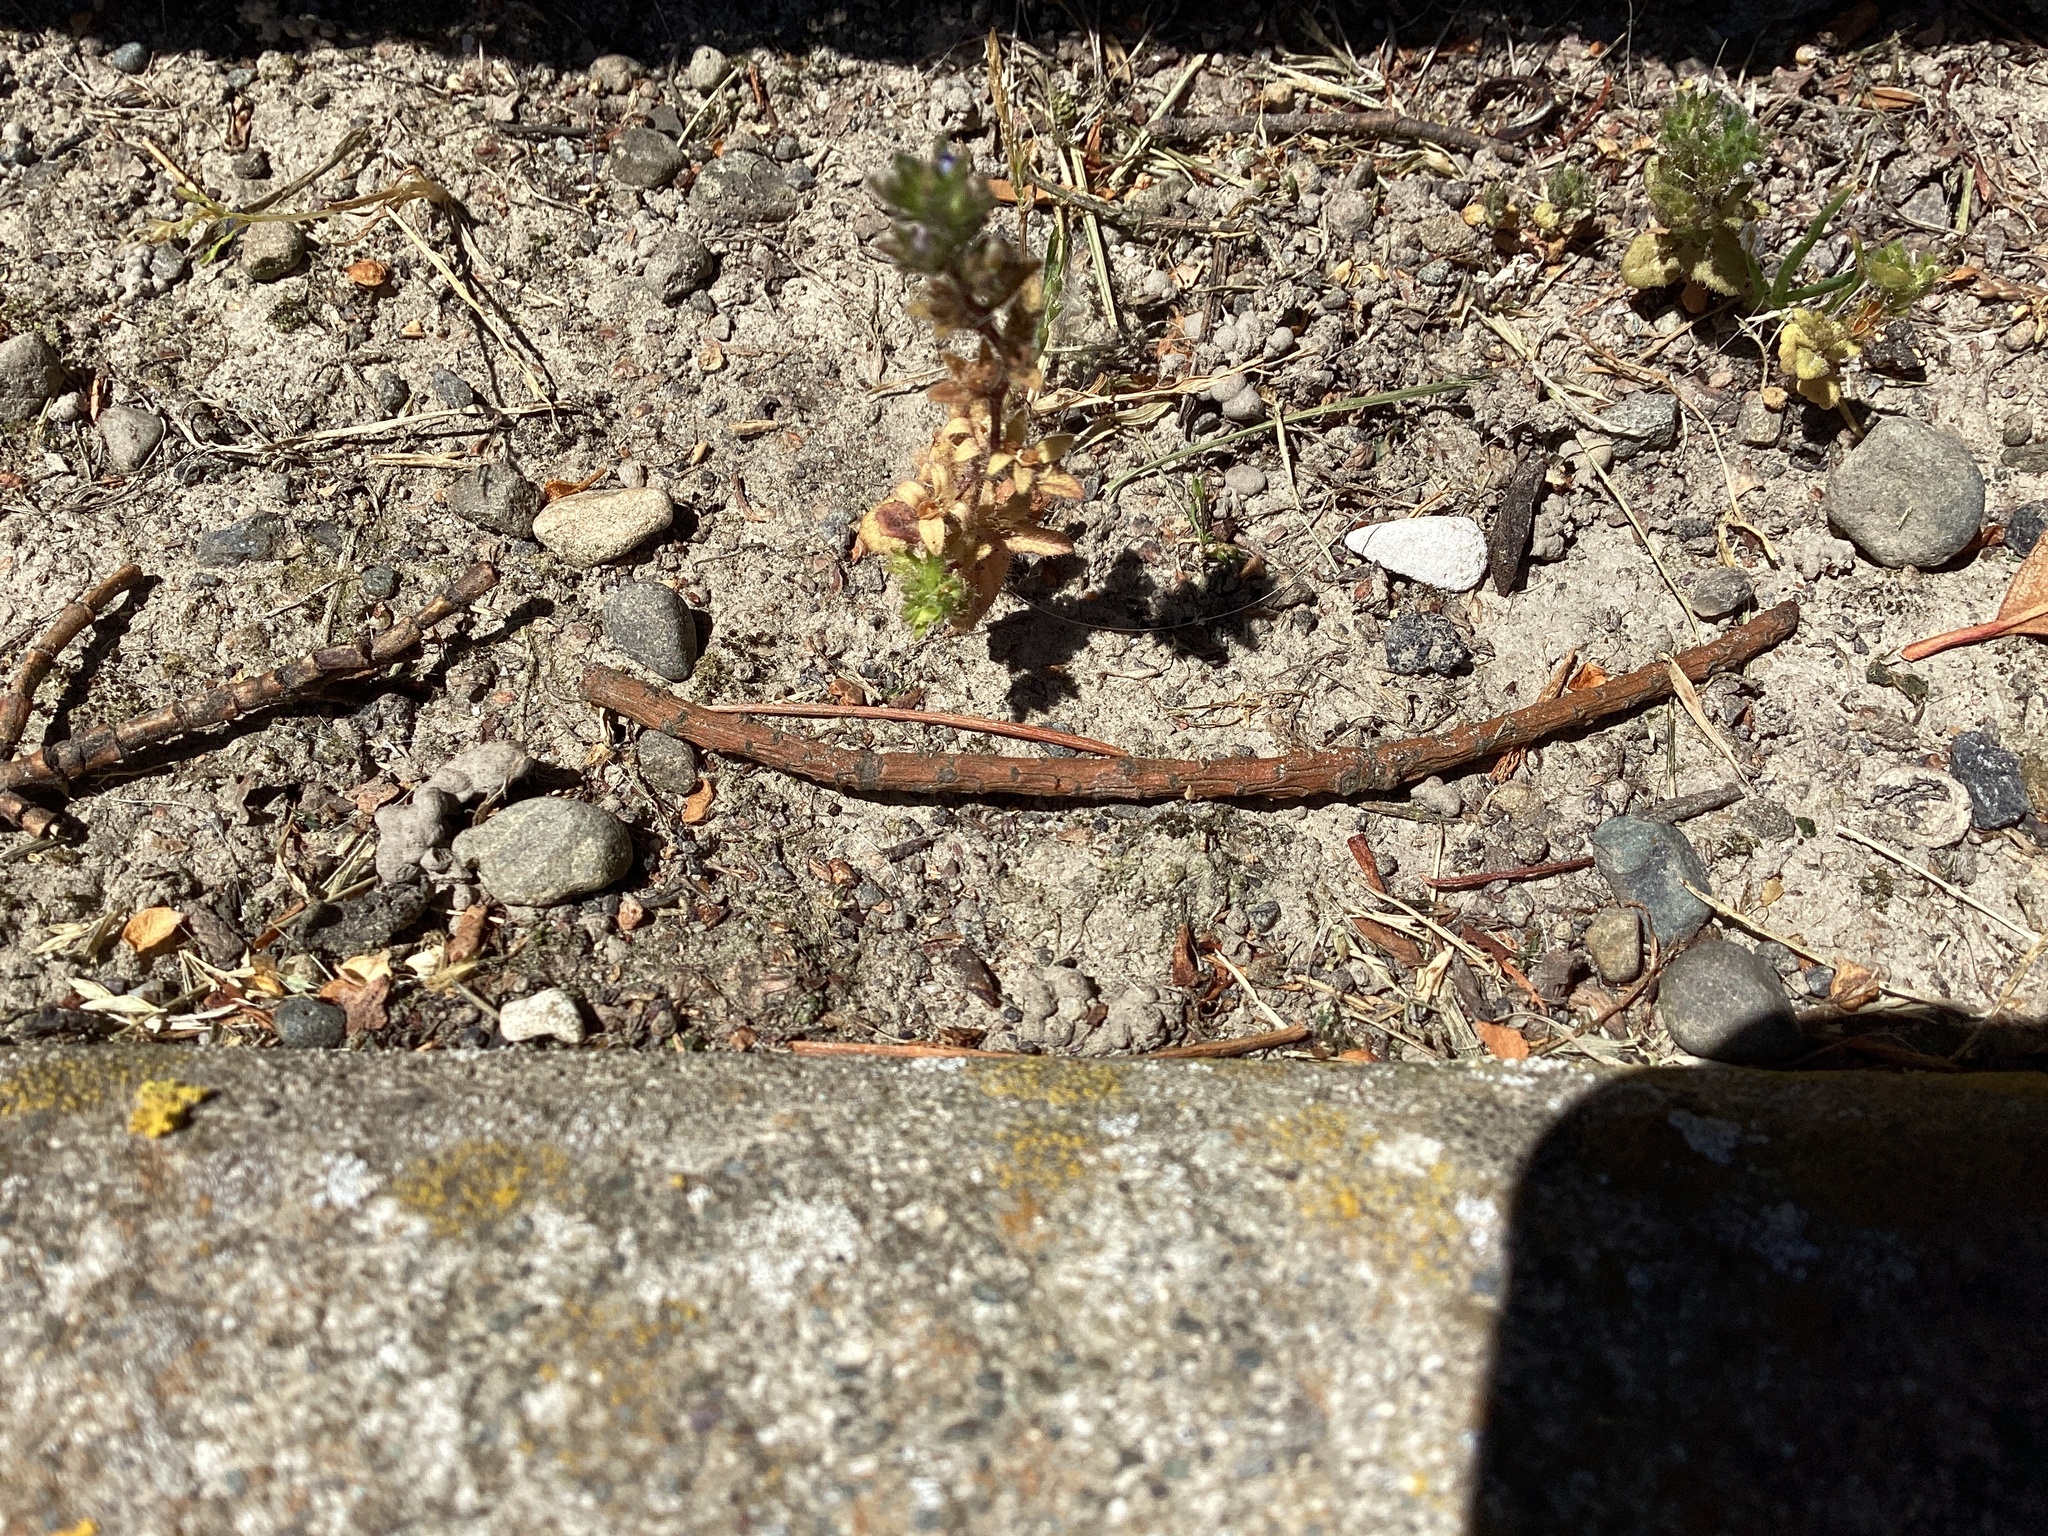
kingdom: Plantae
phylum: Tracheophyta
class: Magnoliopsida
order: Lamiales
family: Plantaginaceae
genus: Veronica
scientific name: Veronica arvensis
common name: Corn speedwell
